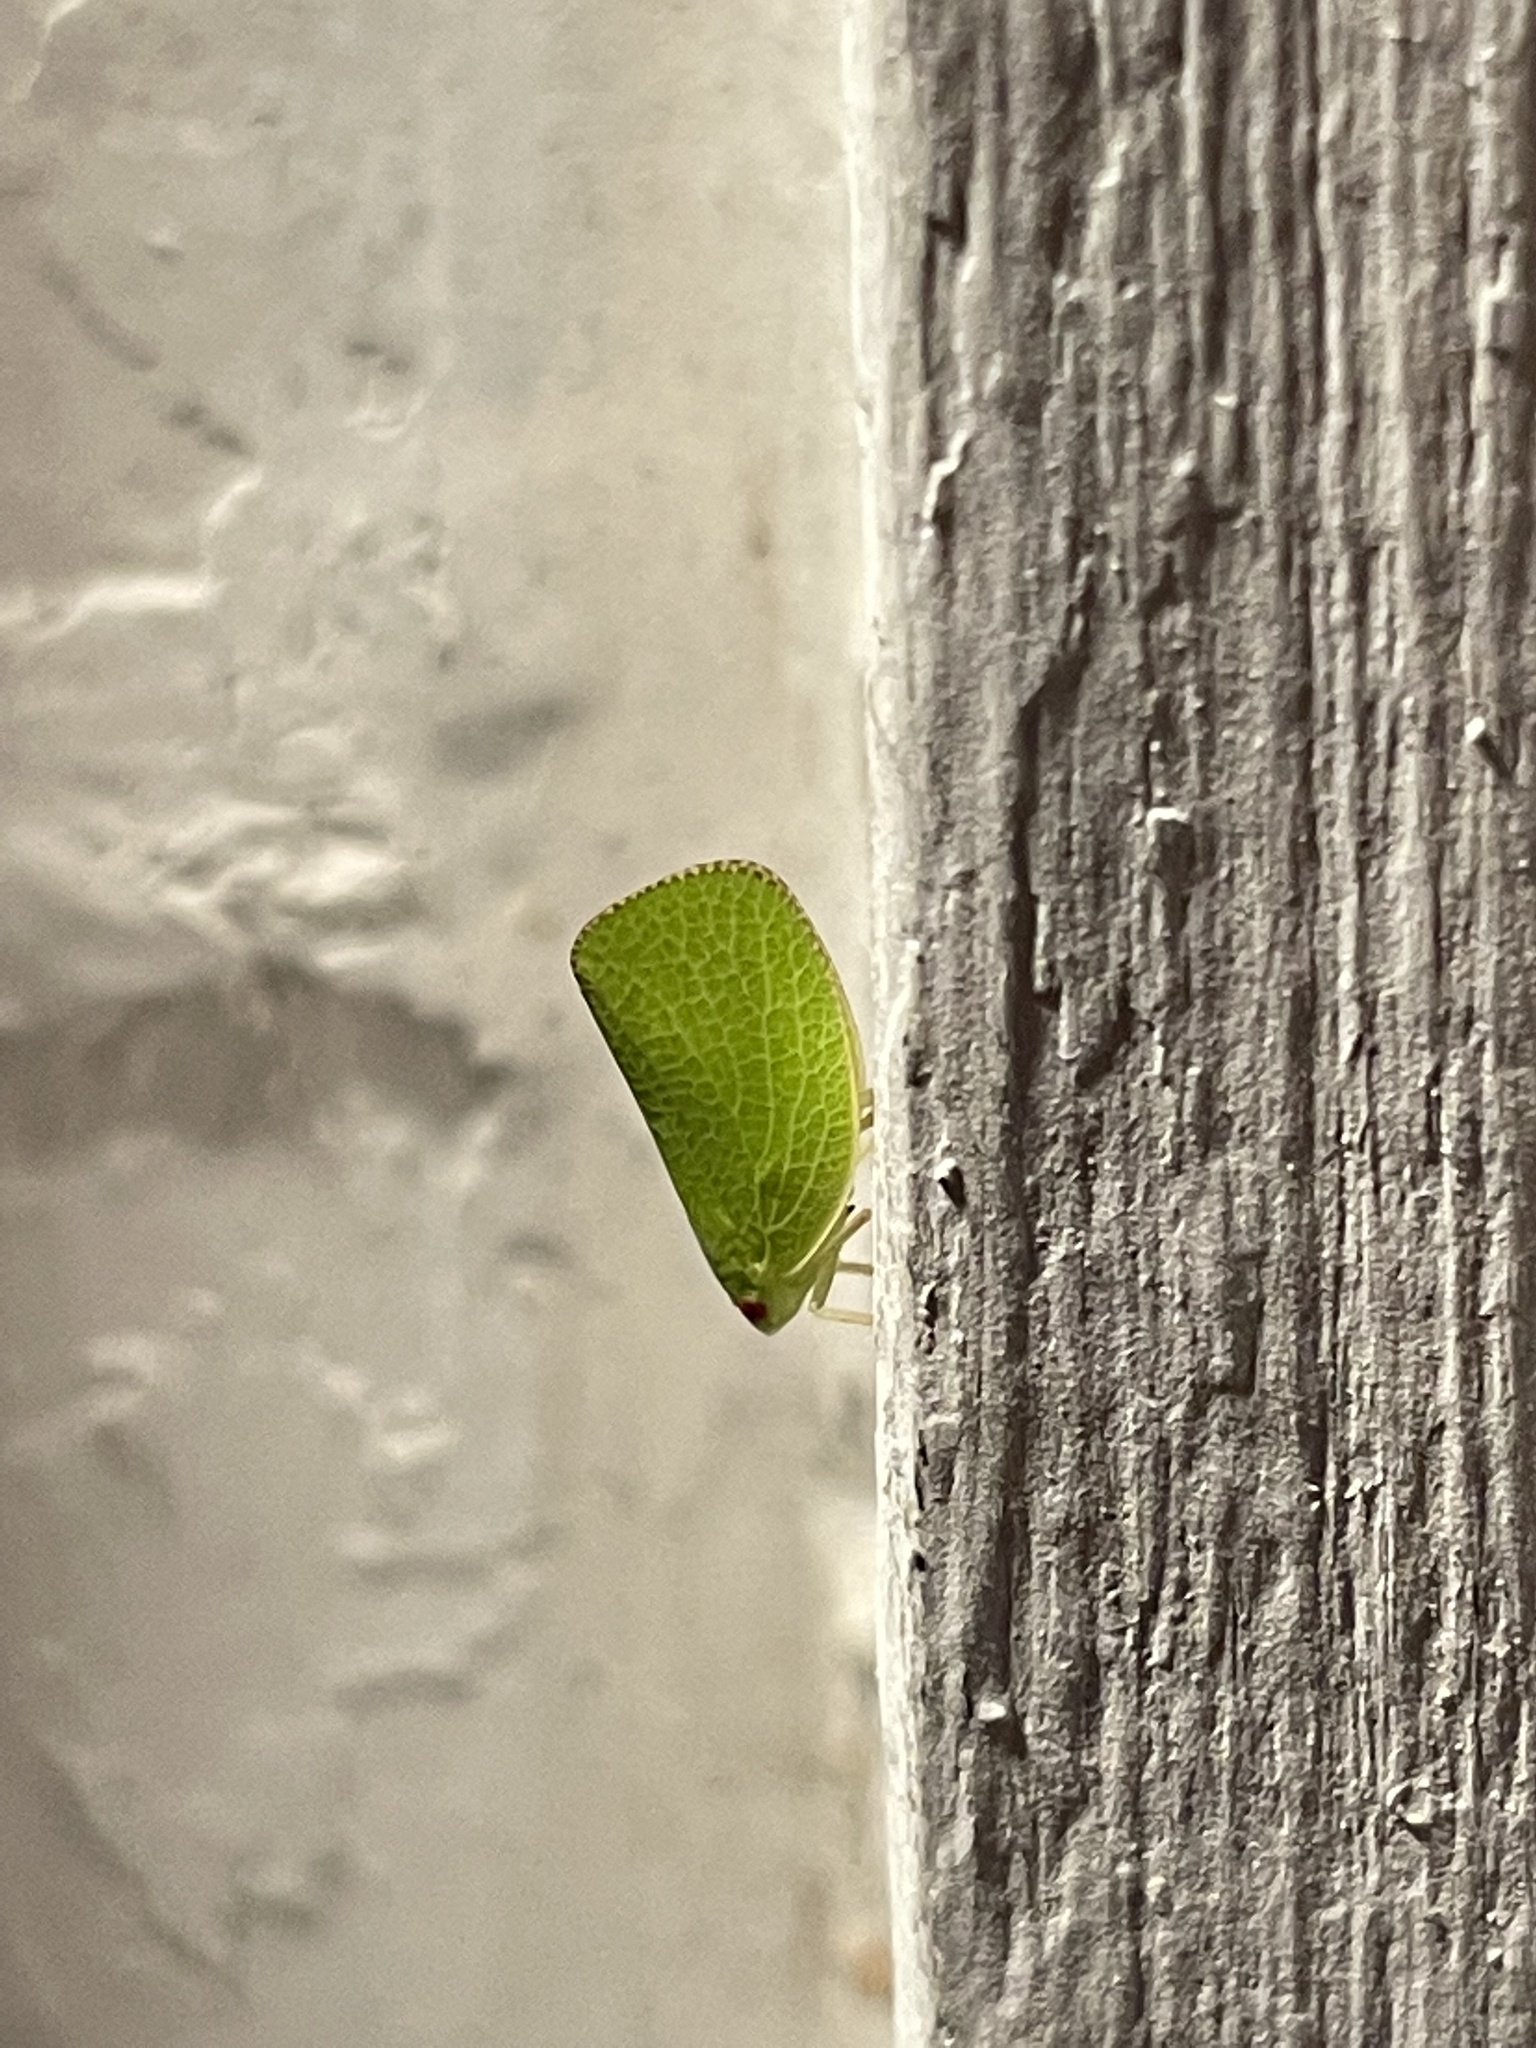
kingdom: Animalia
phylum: Arthropoda
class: Insecta
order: Hemiptera
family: Acanaloniidae
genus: Acanalonia
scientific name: Acanalonia conica
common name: Green cone-headed planthopper
